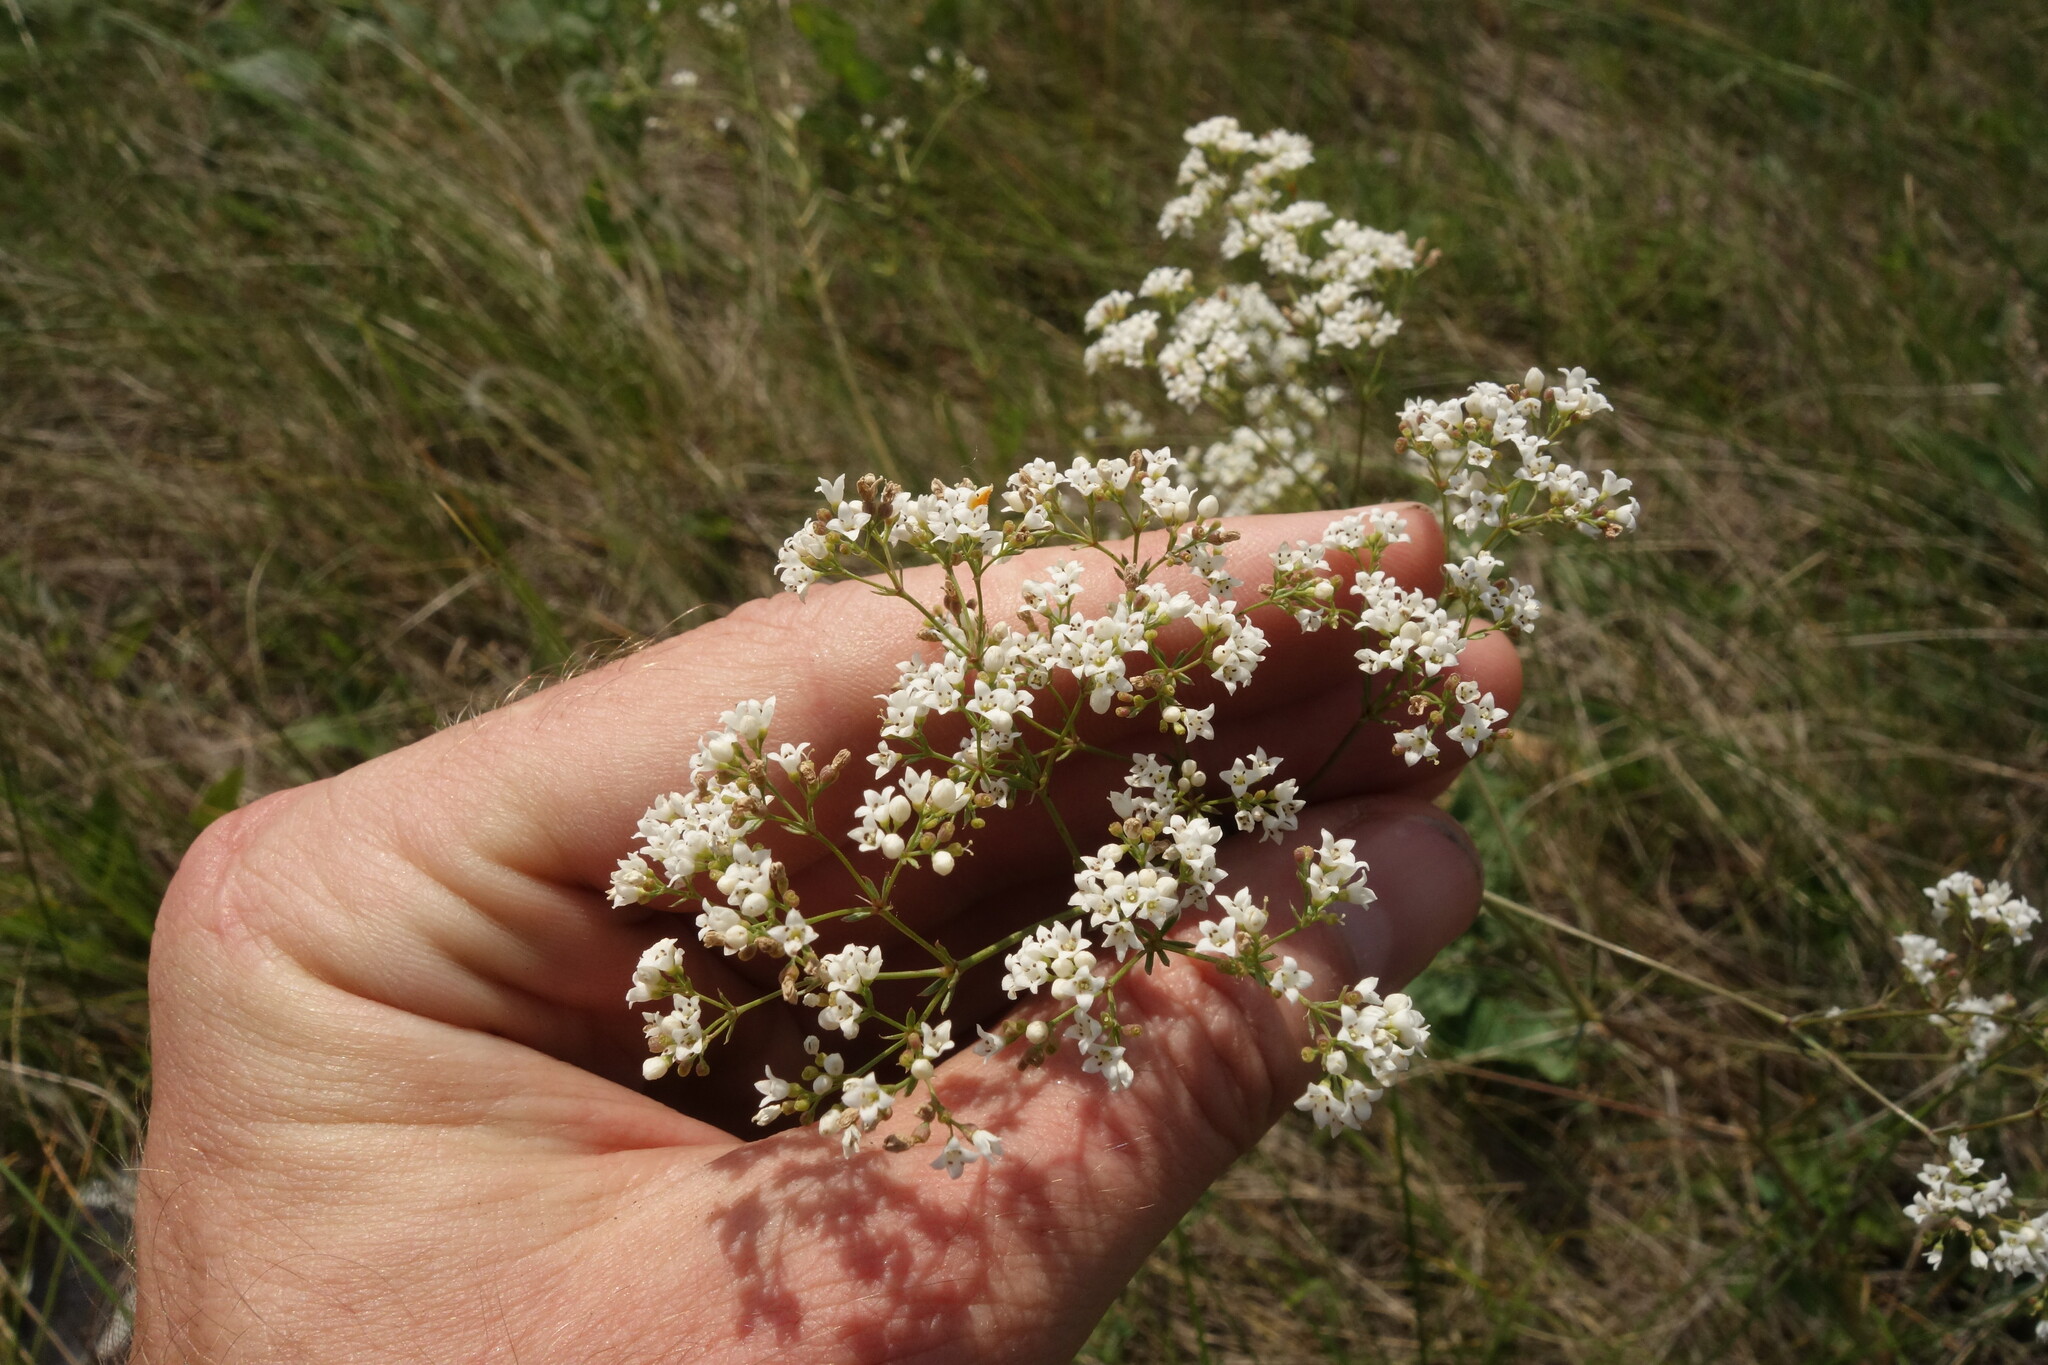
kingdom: Plantae
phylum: Tracheophyta
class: Magnoliopsida
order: Gentianales
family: Rubiaceae
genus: Galium
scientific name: Galium octonarium
